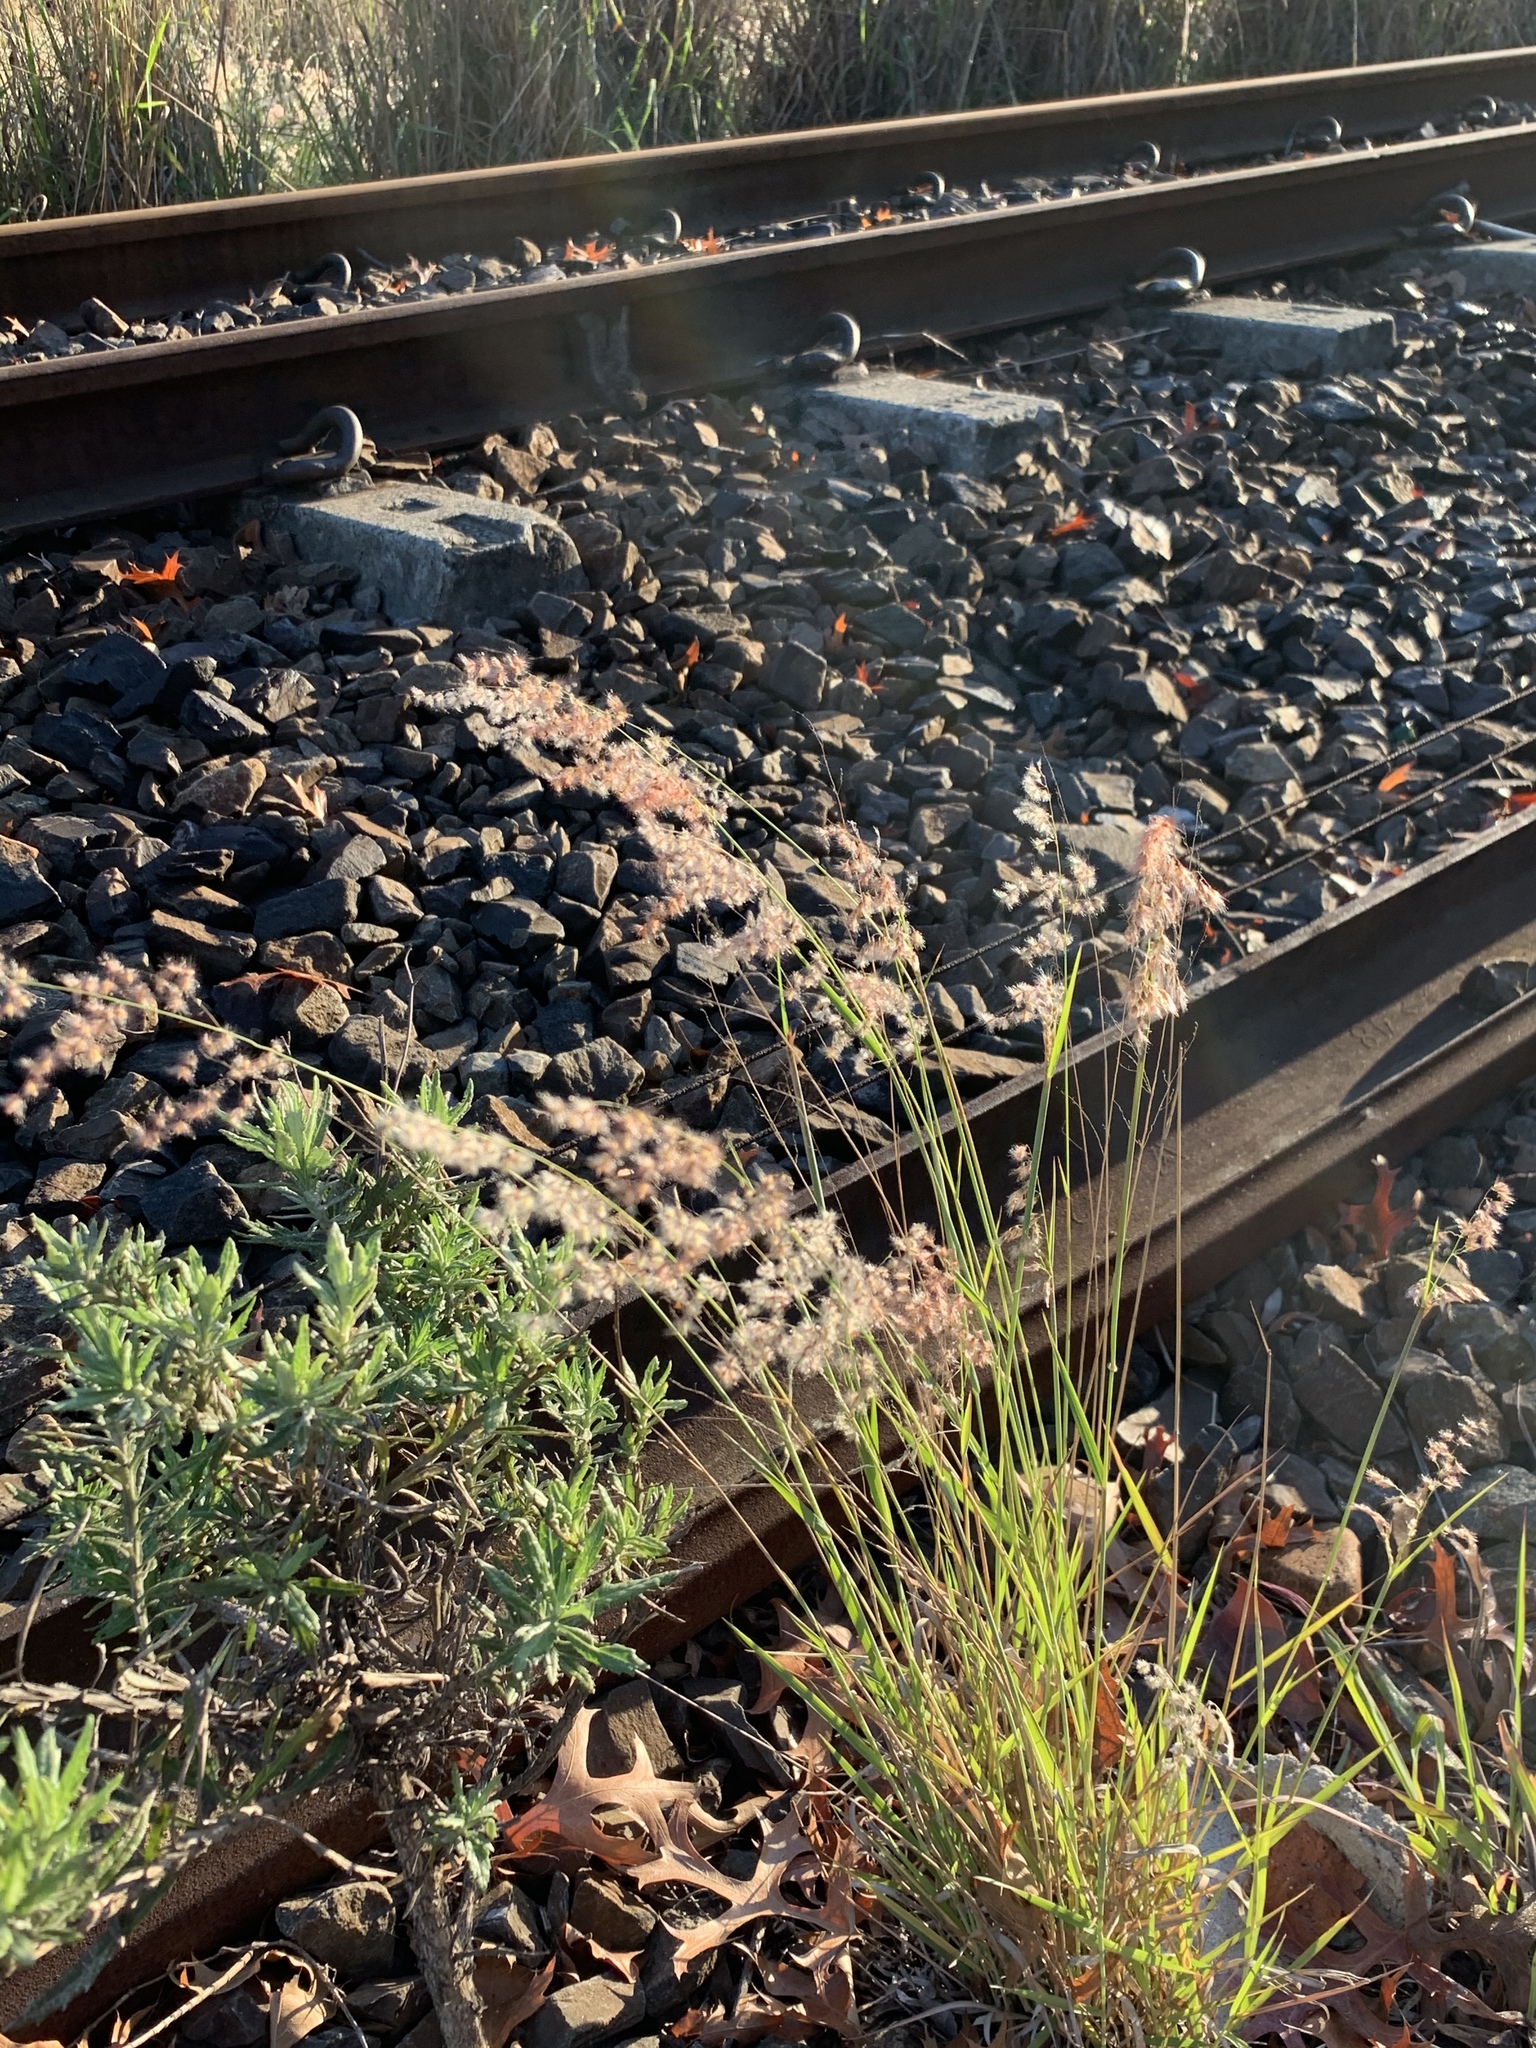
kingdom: Plantae
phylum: Tracheophyta
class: Liliopsida
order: Poales
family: Poaceae
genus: Melinis
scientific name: Melinis repens
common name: Rose natal grass
